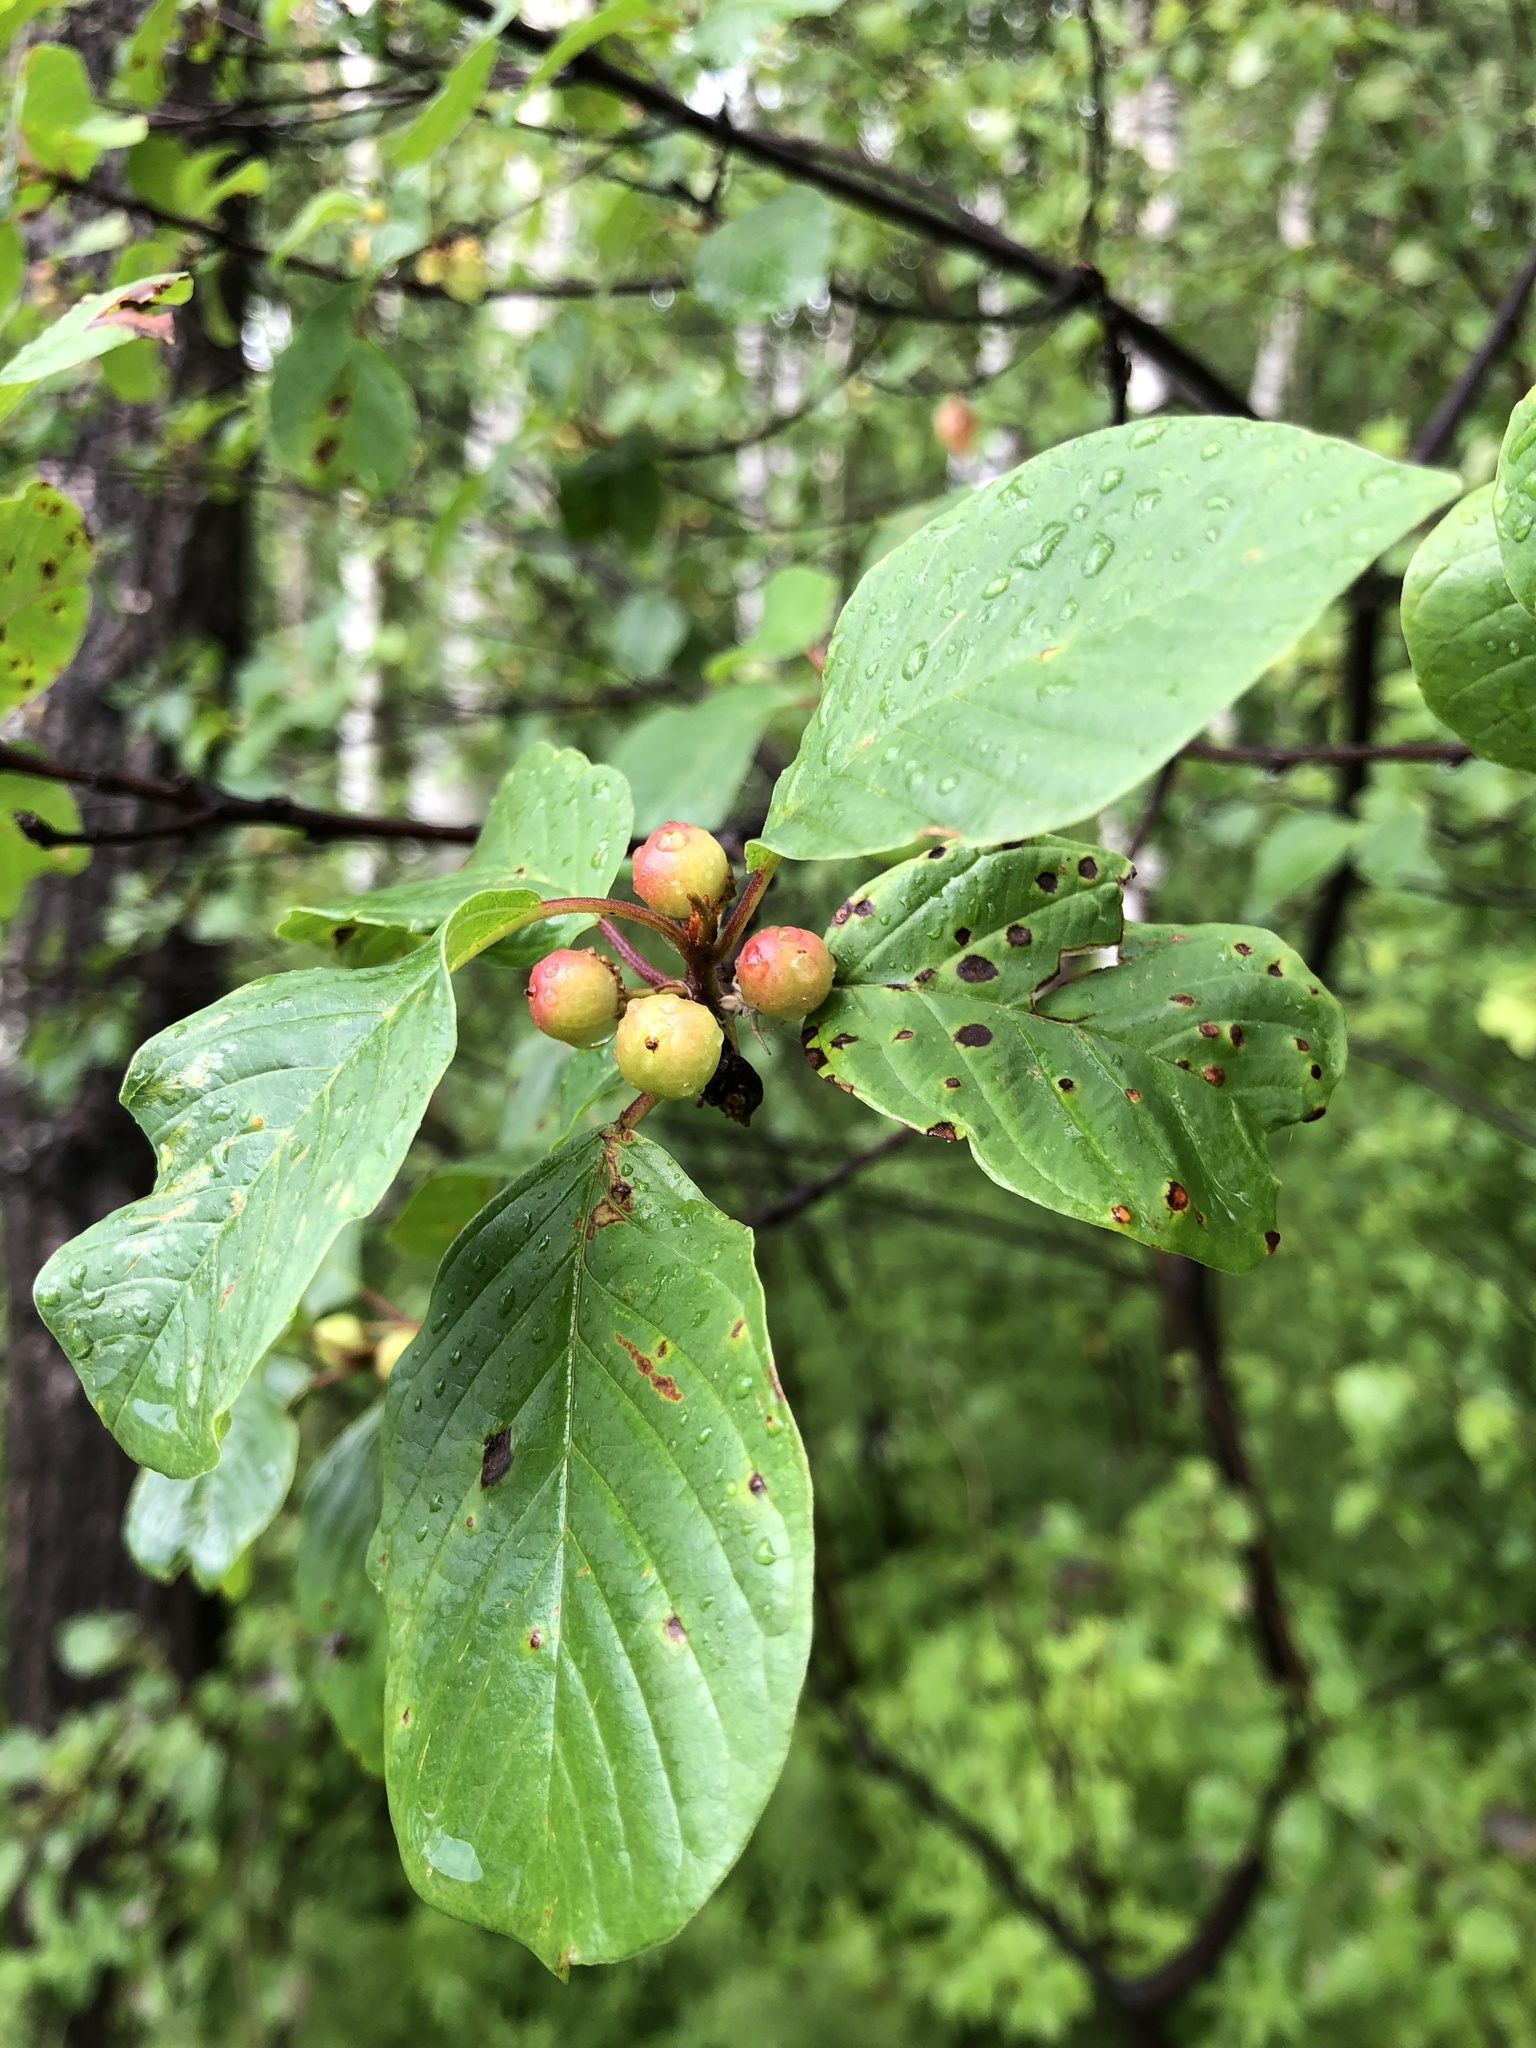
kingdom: Plantae
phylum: Tracheophyta
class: Magnoliopsida
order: Rosales
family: Rhamnaceae
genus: Frangula
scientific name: Frangula alnus
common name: Alder buckthorn
